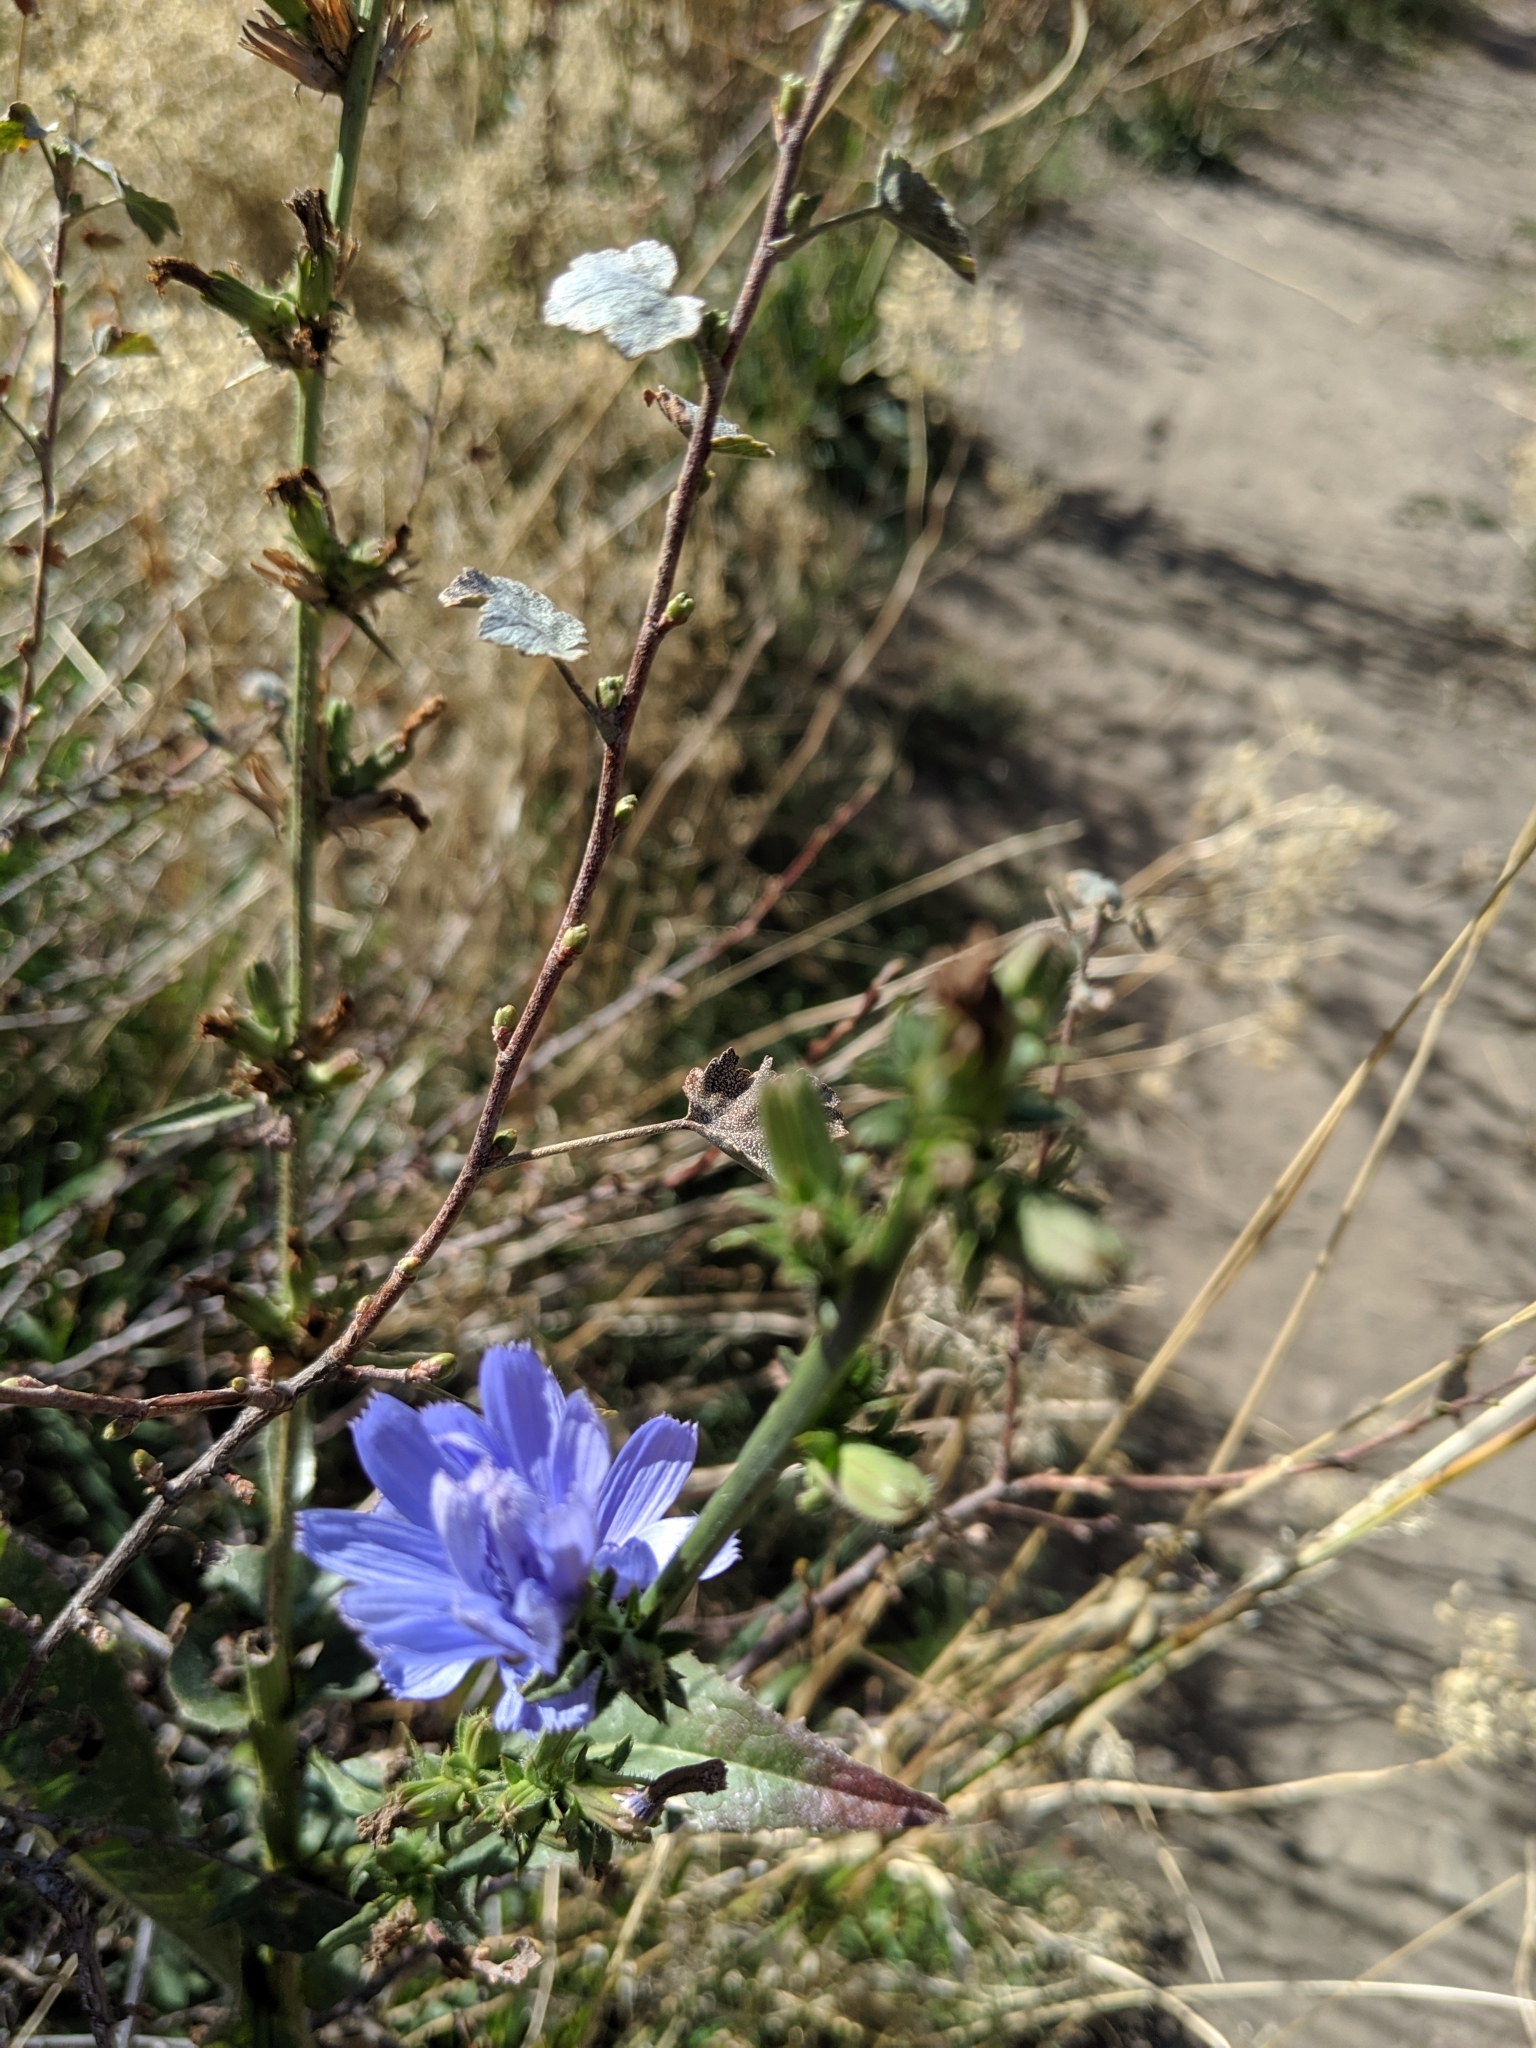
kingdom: Plantae
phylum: Tracheophyta
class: Magnoliopsida
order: Asterales
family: Asteraceae
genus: Cichorium
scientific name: Cichorium intybus
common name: Chicory
